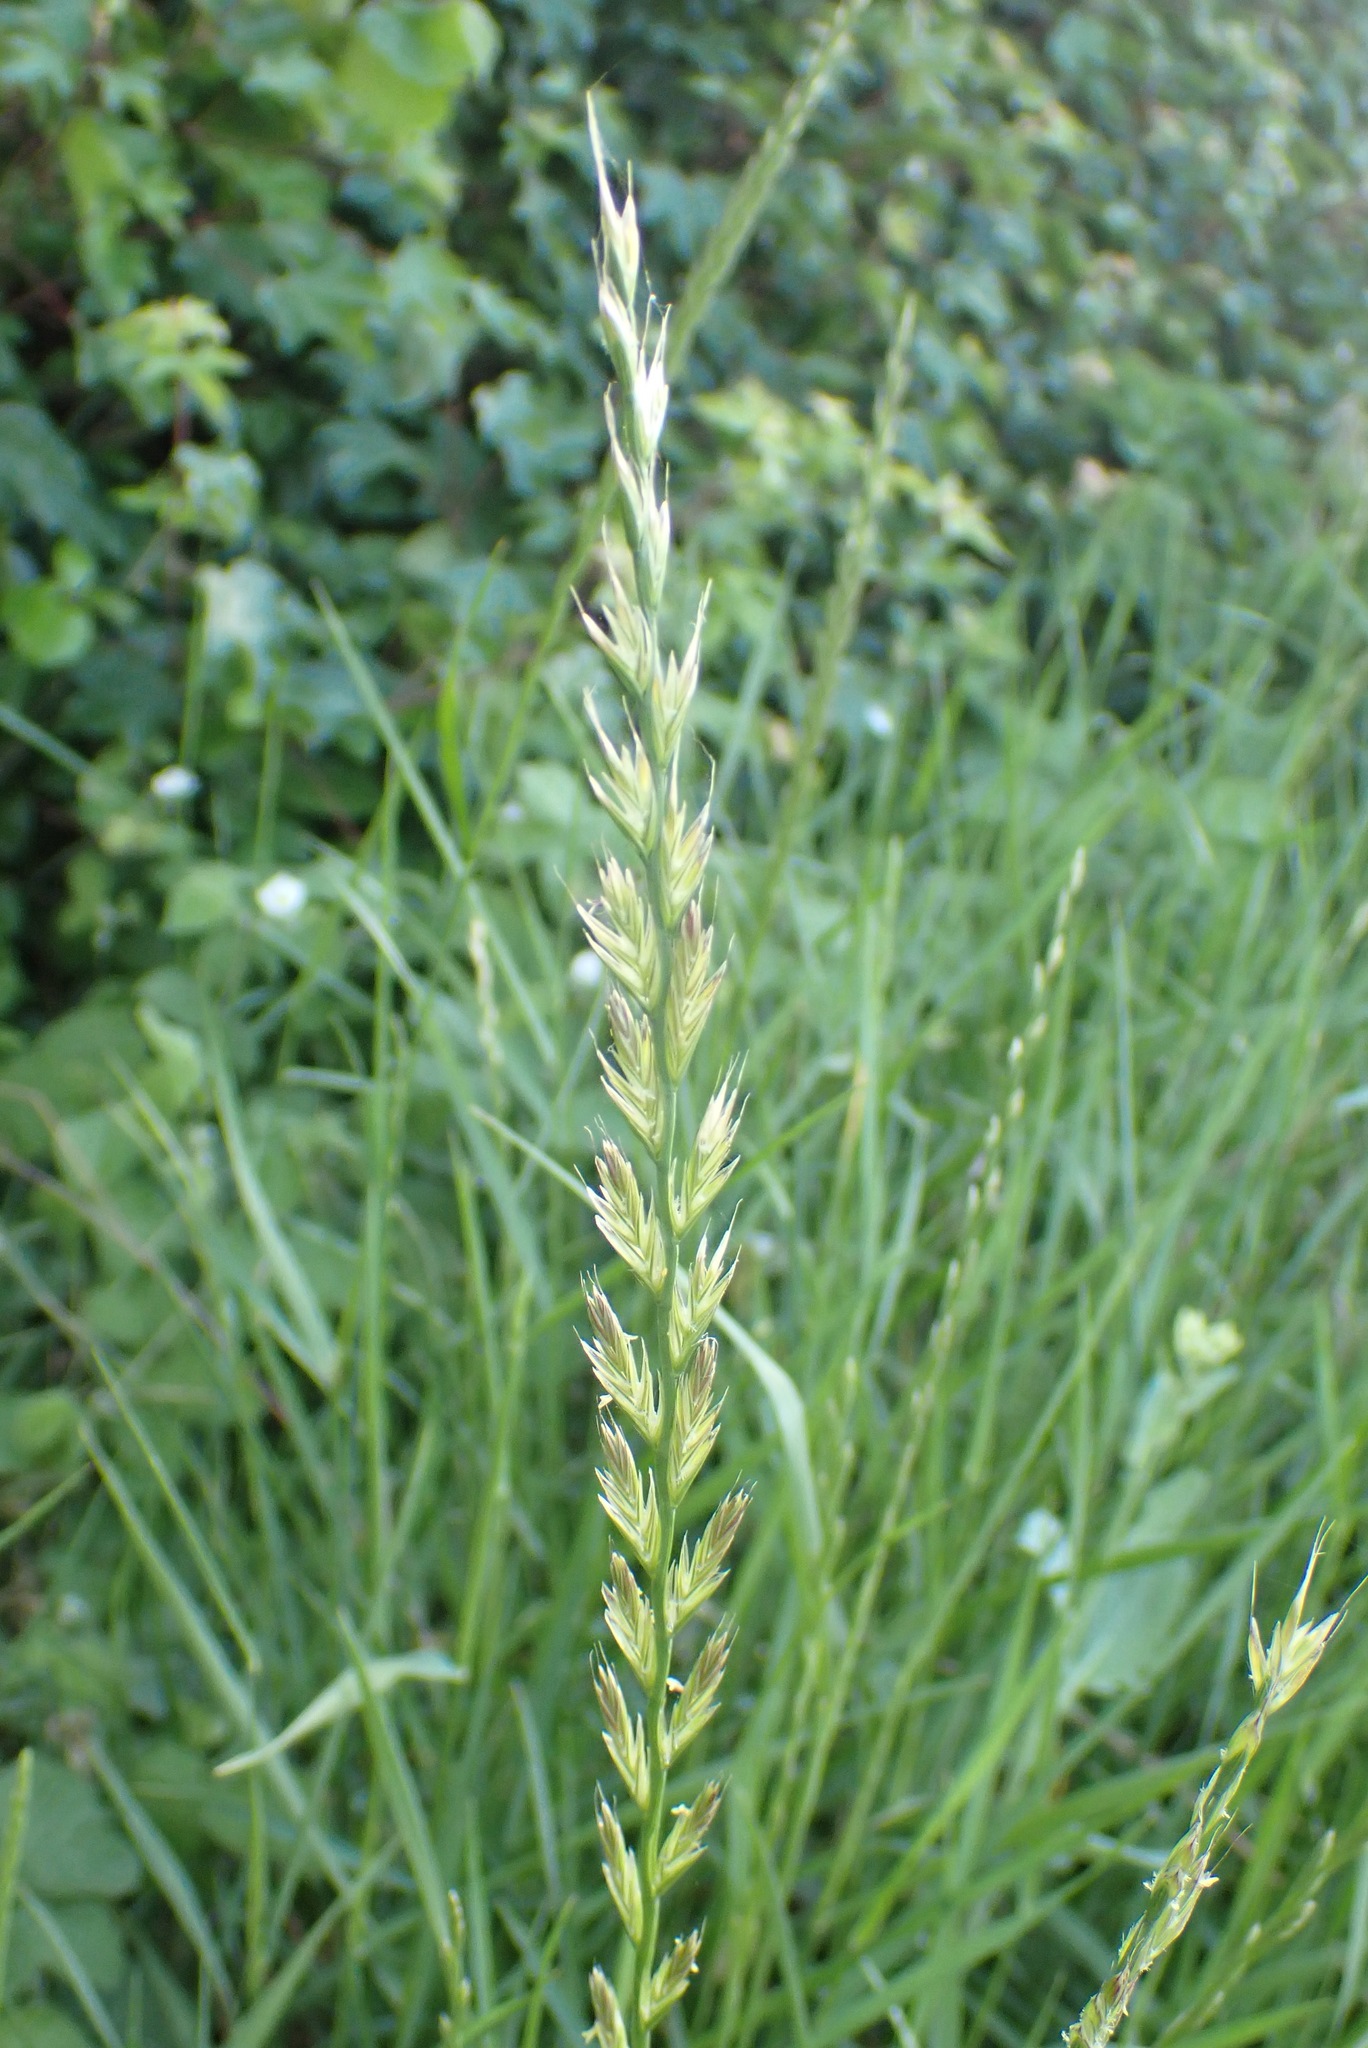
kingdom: Plantae
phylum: Tracheophyta
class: Liliopsida
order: Poales
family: Poaceae
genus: Lolium
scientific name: Lolium multiflorum
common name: Annual ryegrass
